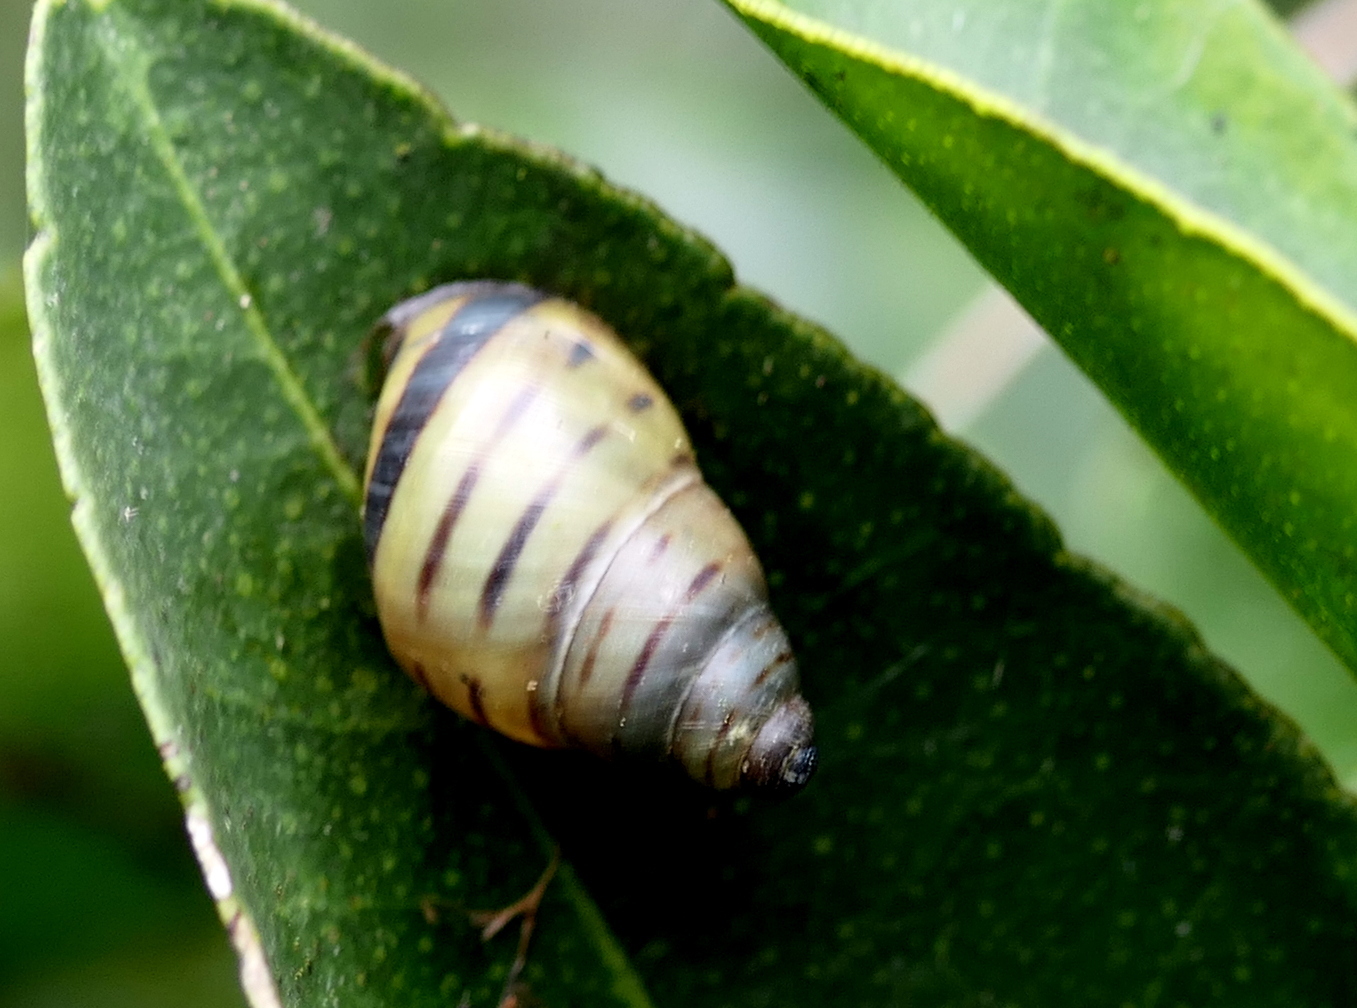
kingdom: Animalia
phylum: Mollusca
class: Gastropoda
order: Stylommatophora
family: Bulimulidae
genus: Drymaeus
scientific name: Drymaeus
